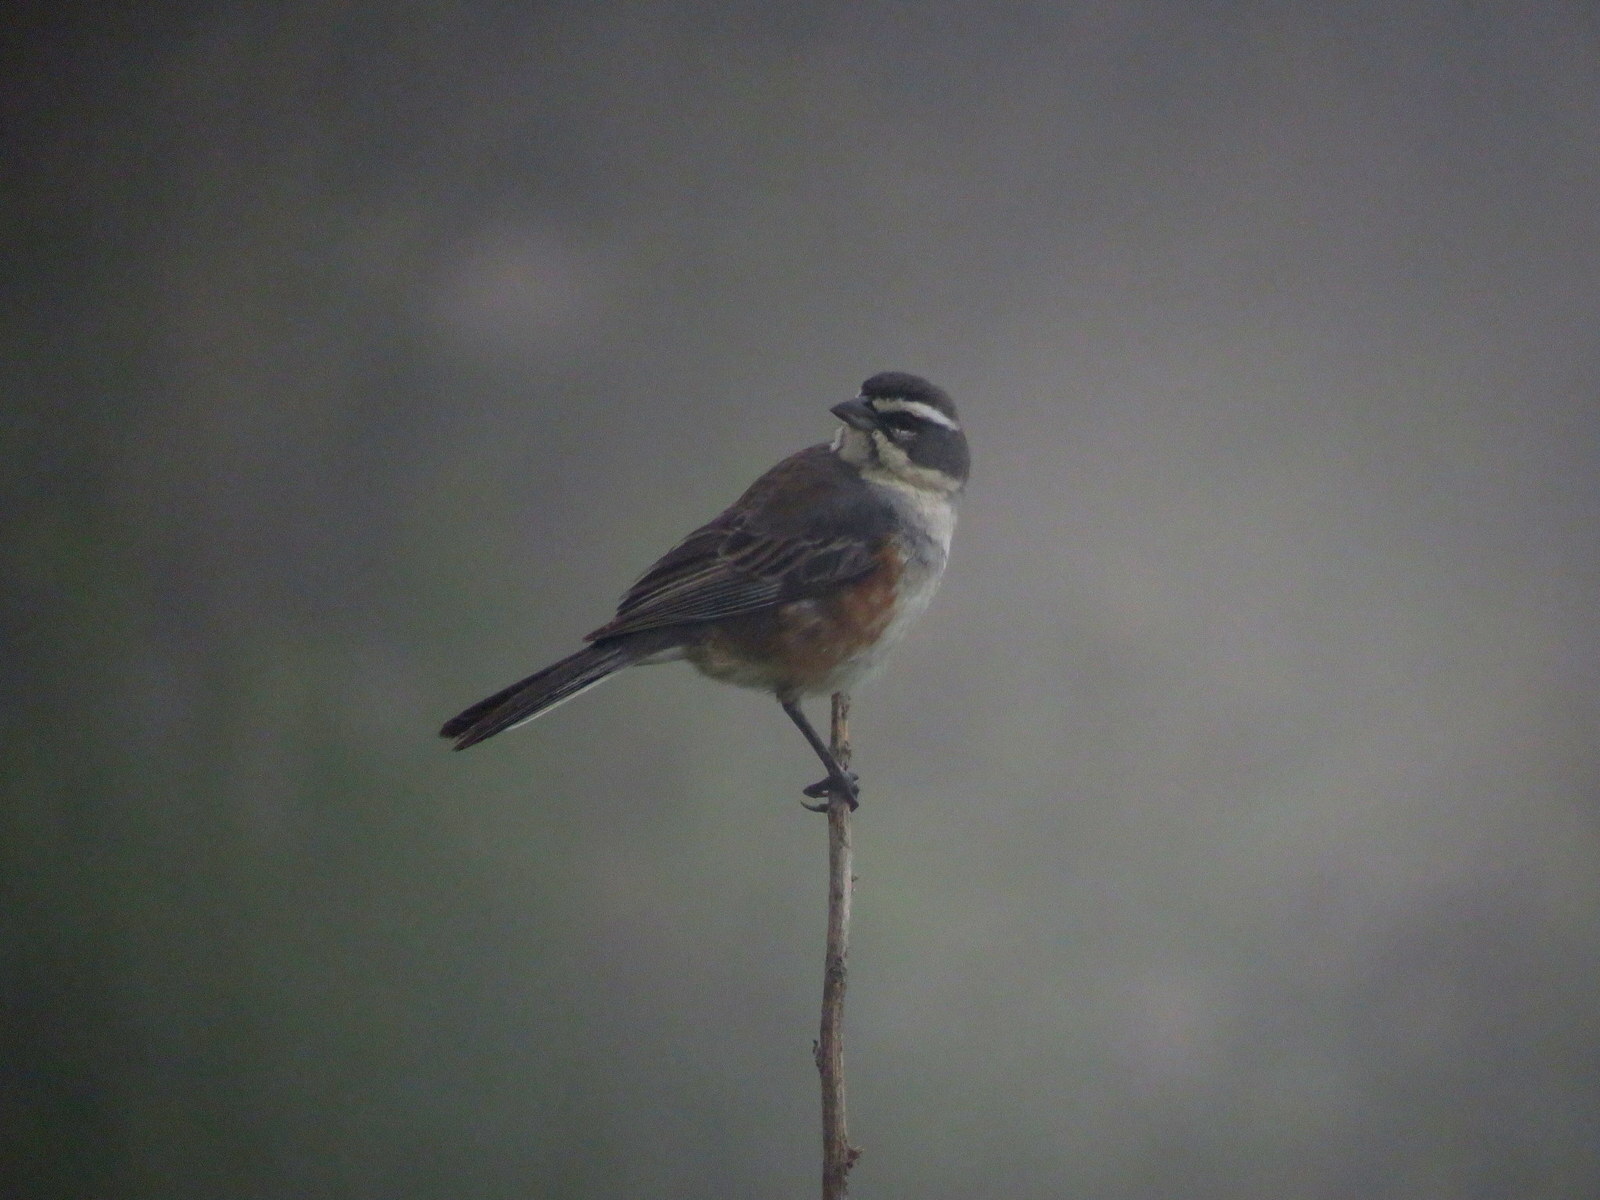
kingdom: Animalia
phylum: Chordata
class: Aves
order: Passeriformes
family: Thraupidae
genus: Poospizopsis
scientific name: Poospizopsis hypocondria
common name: Rufous-sided warbling-finch
